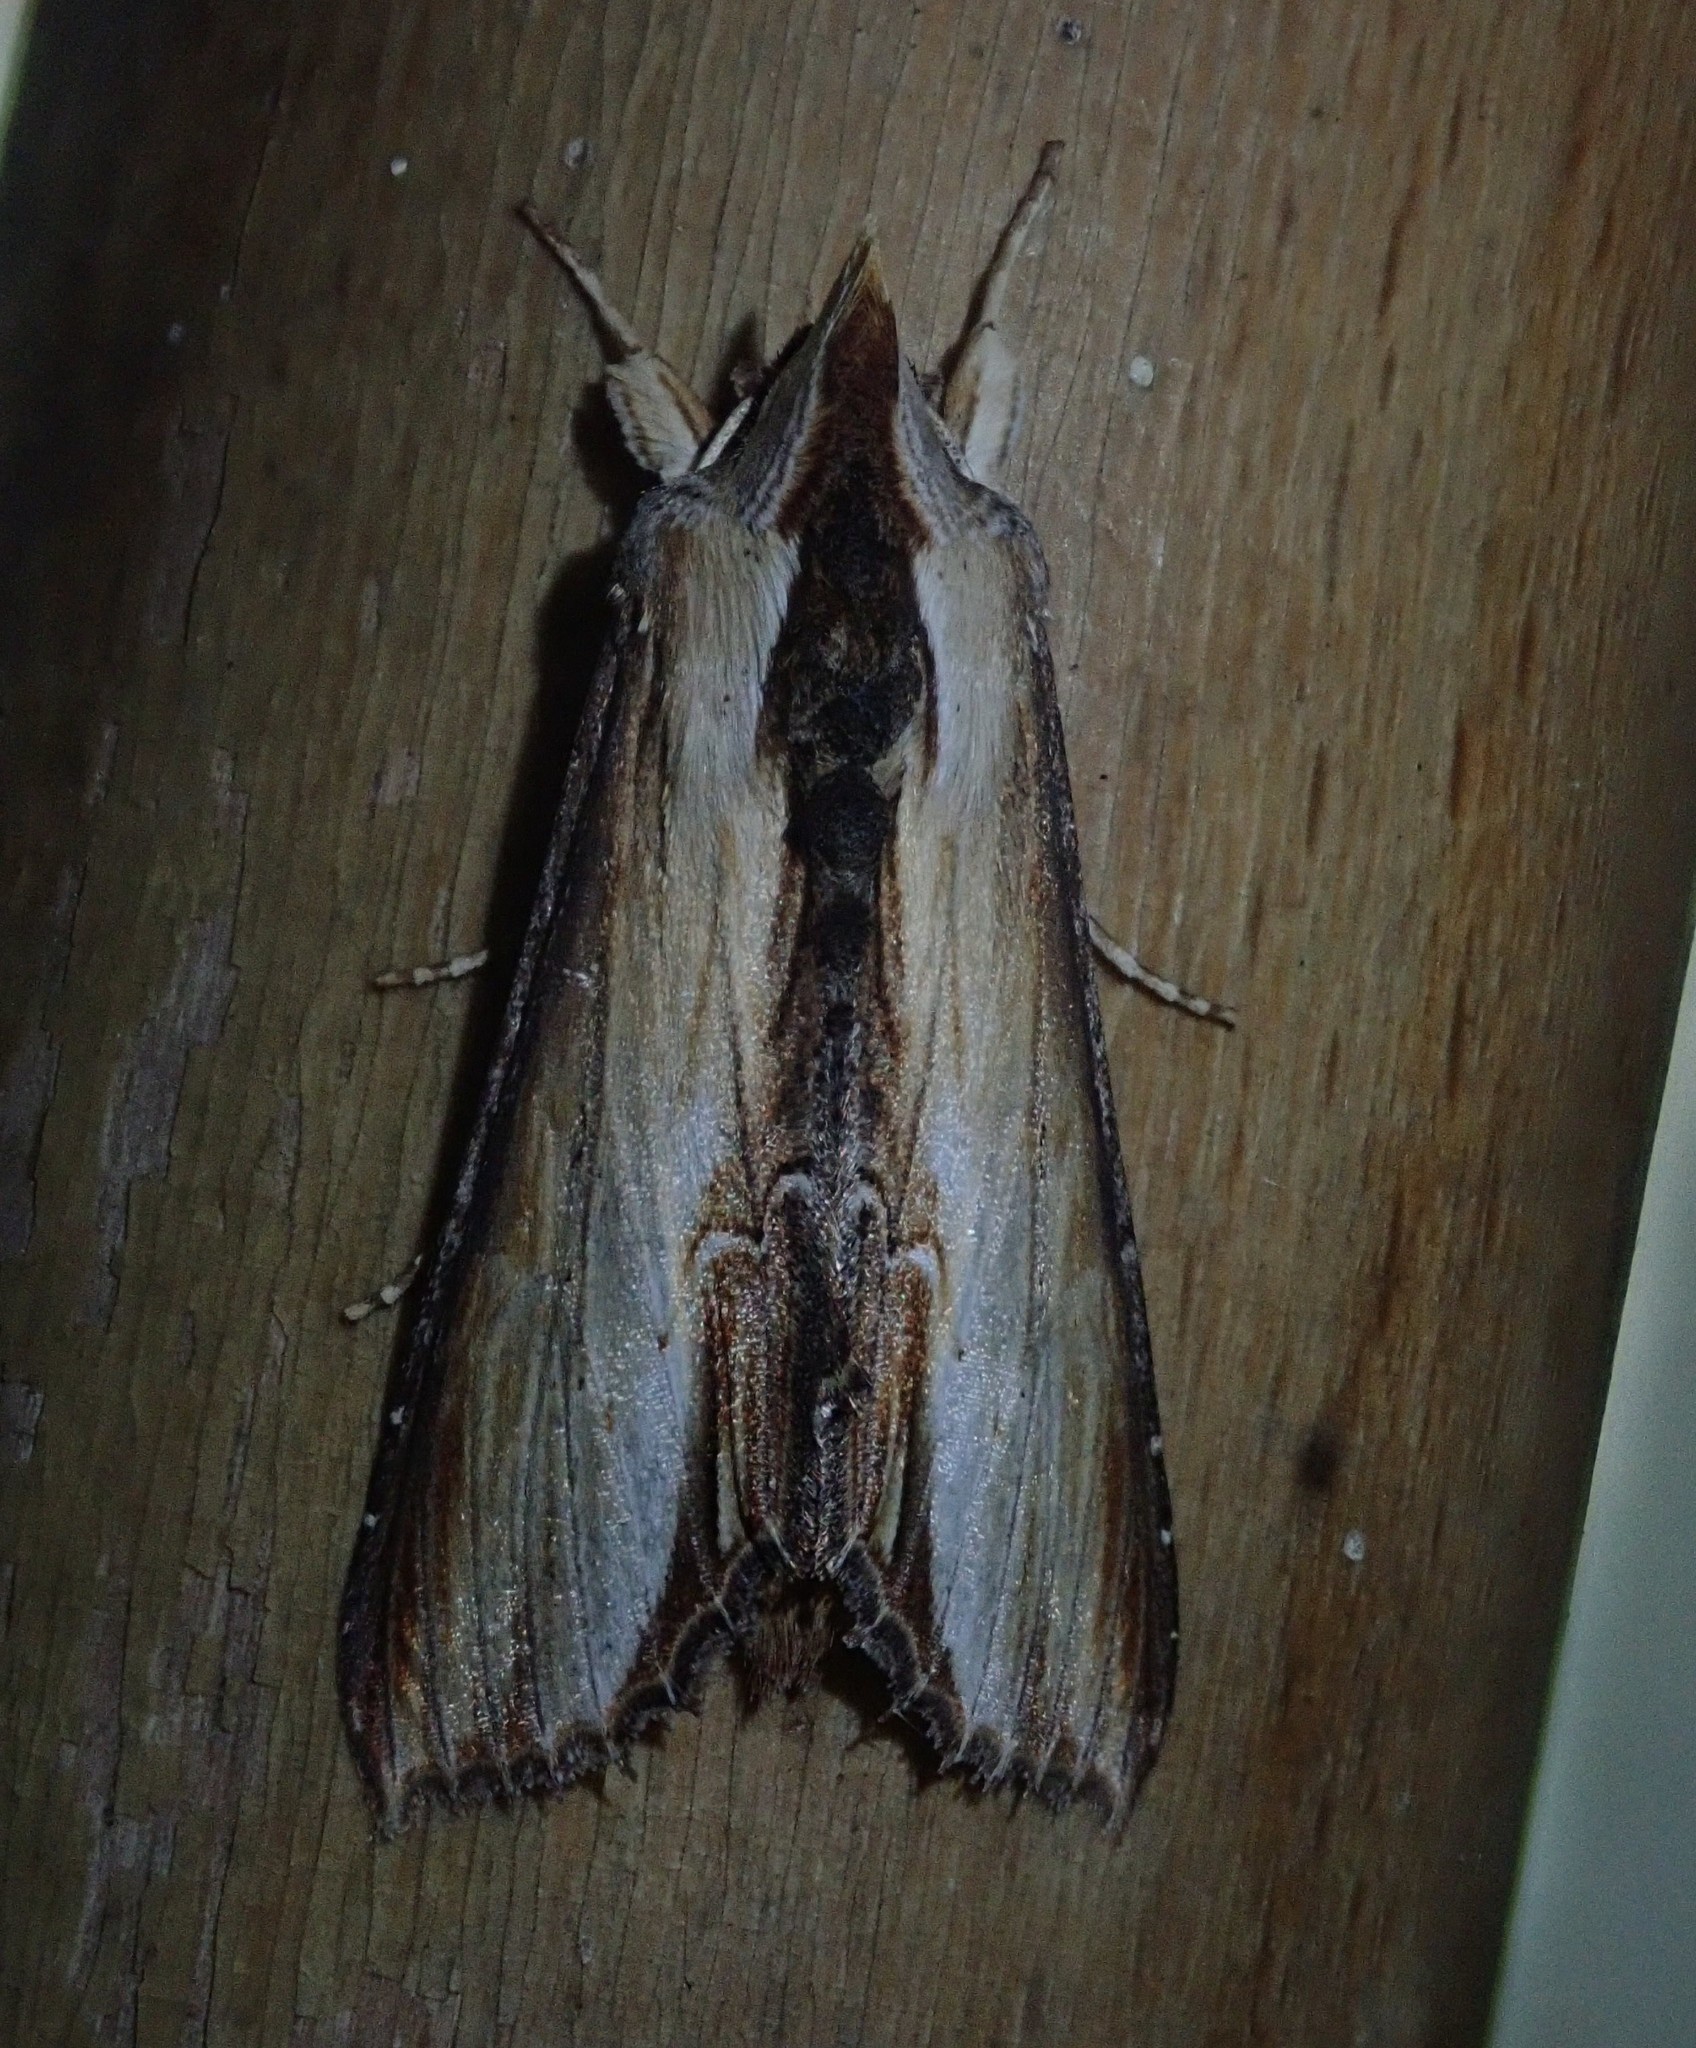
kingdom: Animalia
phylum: Arthropoda
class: Insecta
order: Lepidoptera
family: Noctuidae
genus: Cucullia
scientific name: Cucullia verbasci
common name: Mullein
